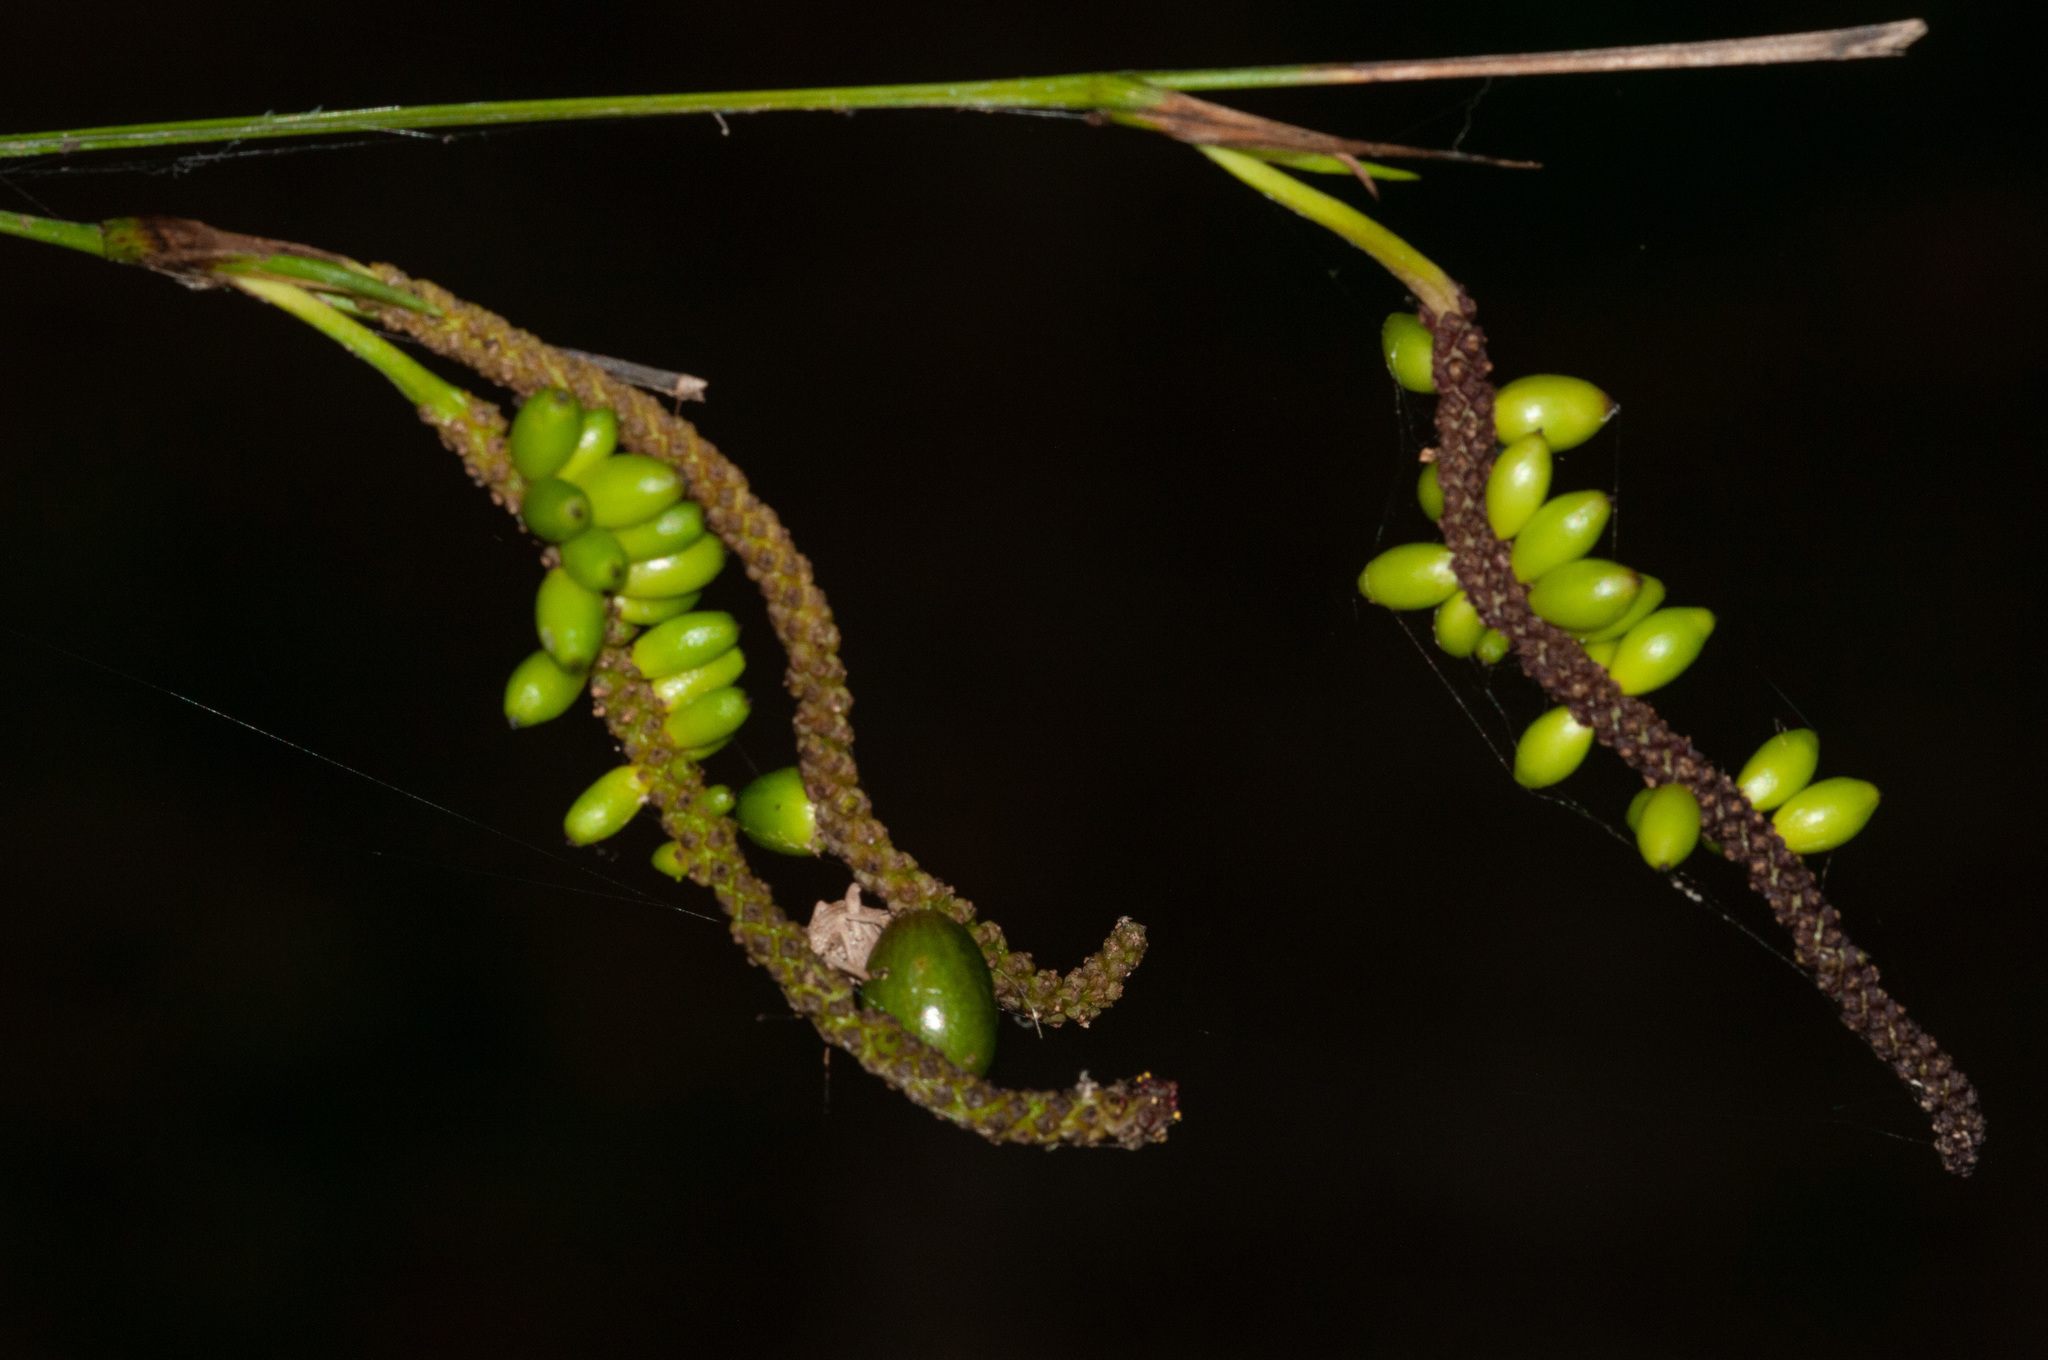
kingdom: Plantae
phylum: Tracheophyta
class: Liliopsida
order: Alismatales
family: Araceae
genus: Gymnostachys
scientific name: Gymnostachys anceps
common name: Settler's-flax
